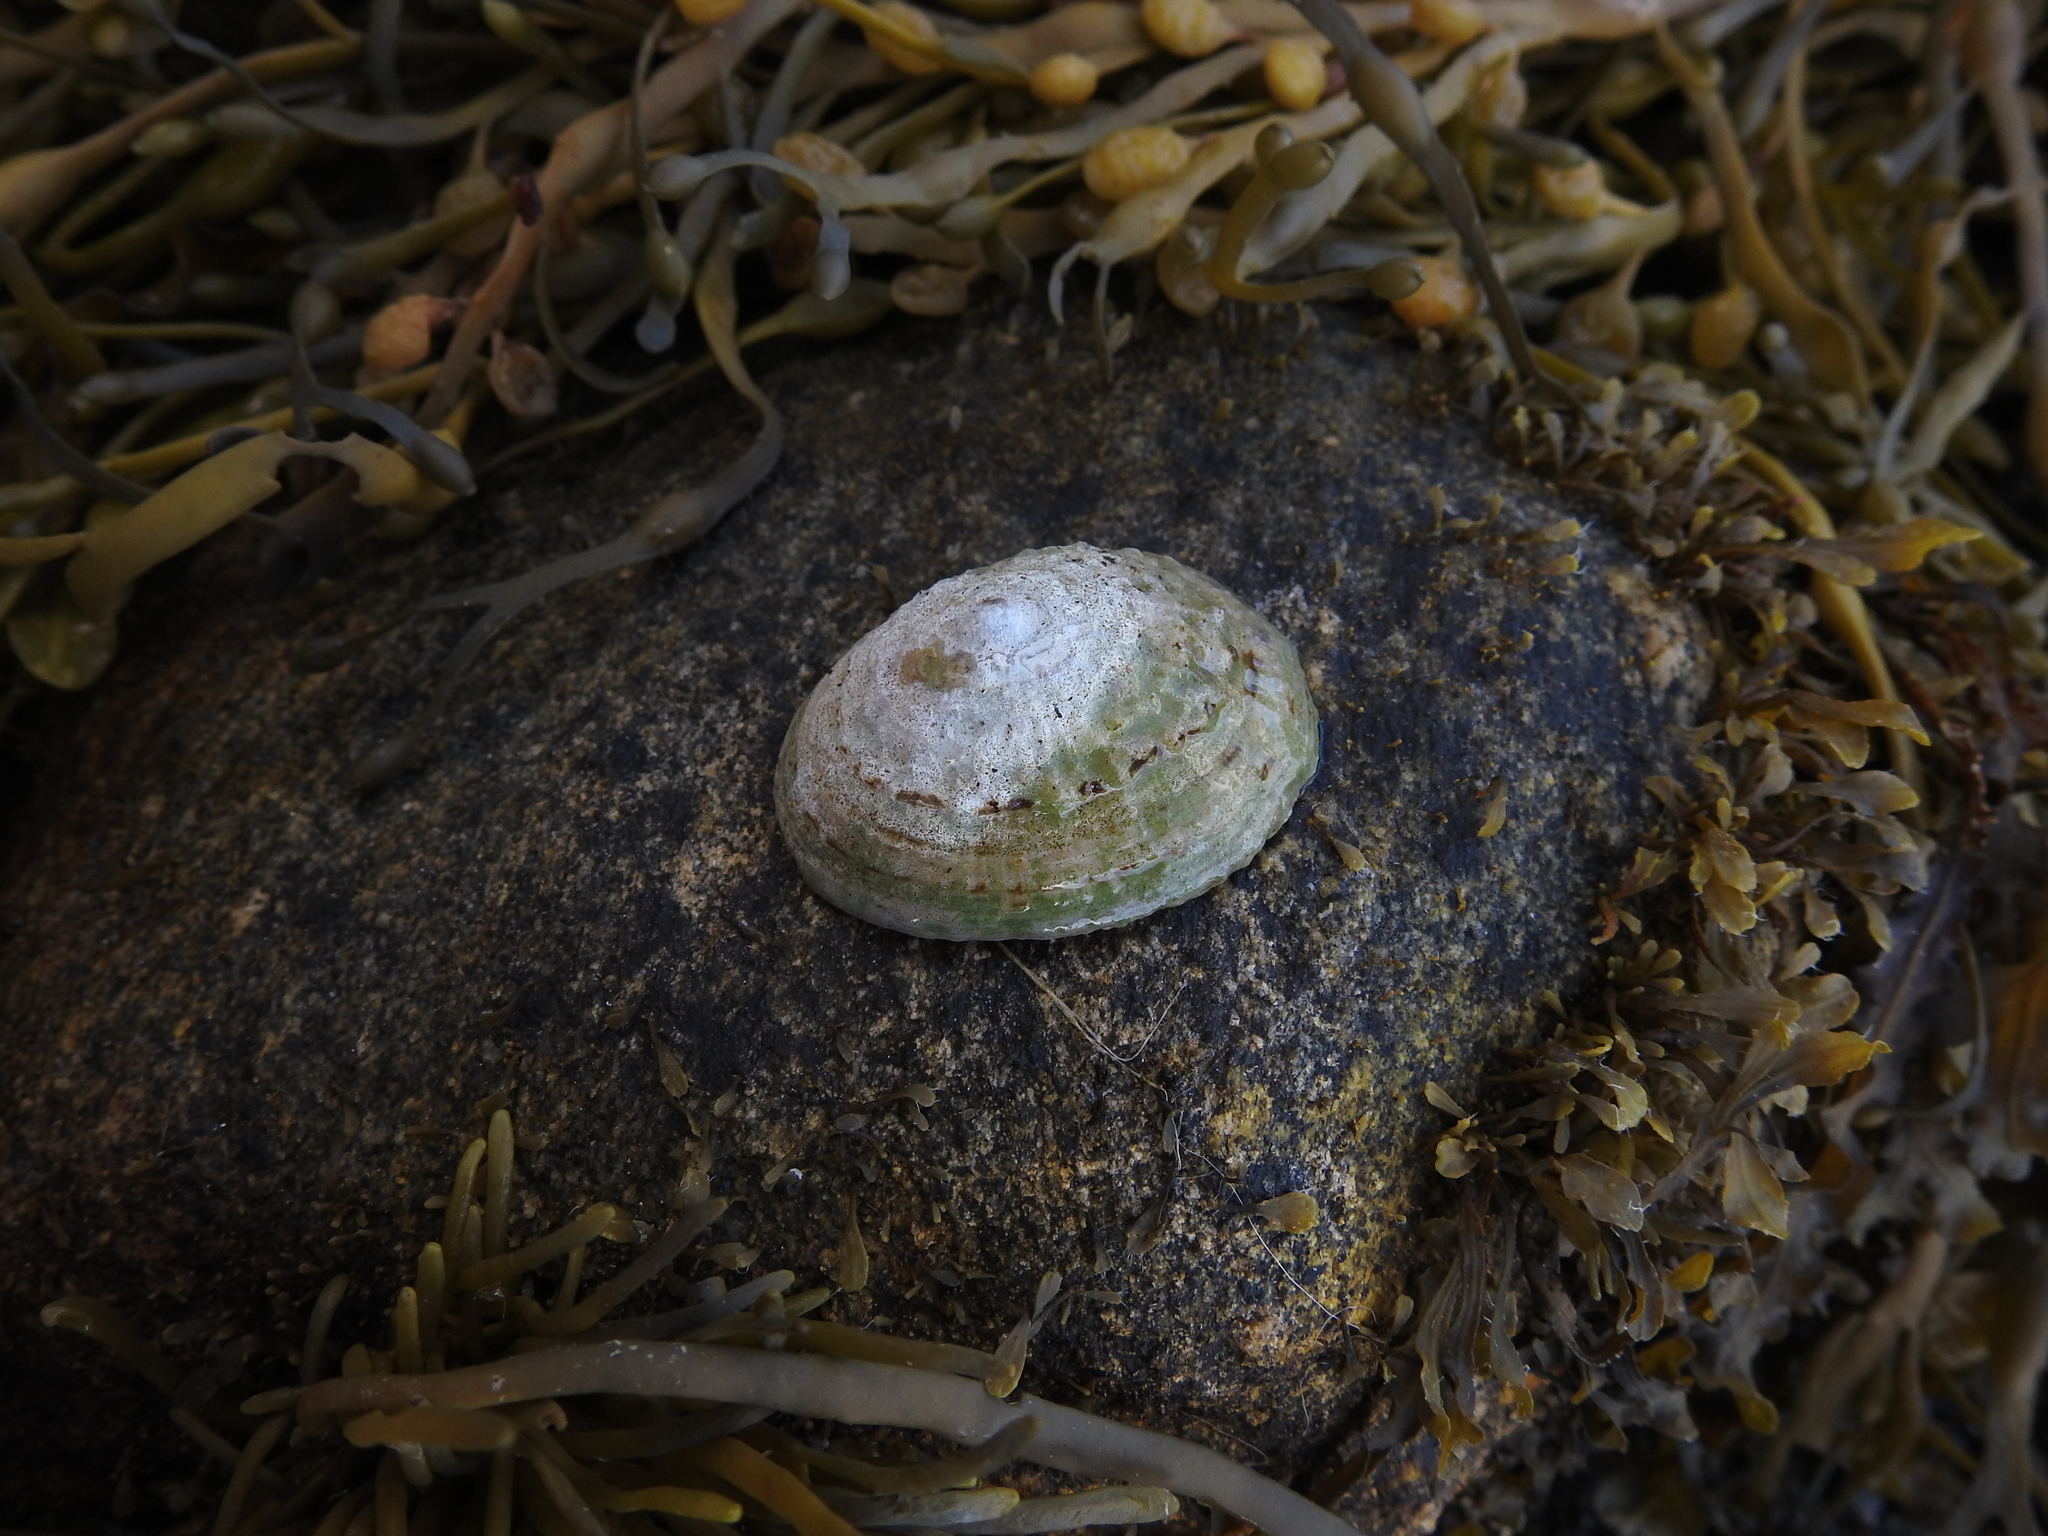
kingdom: Animalia
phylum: Mollusca
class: Gastropoda
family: Patellidae
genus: Patella
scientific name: Patella vulgata
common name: Common limpet
